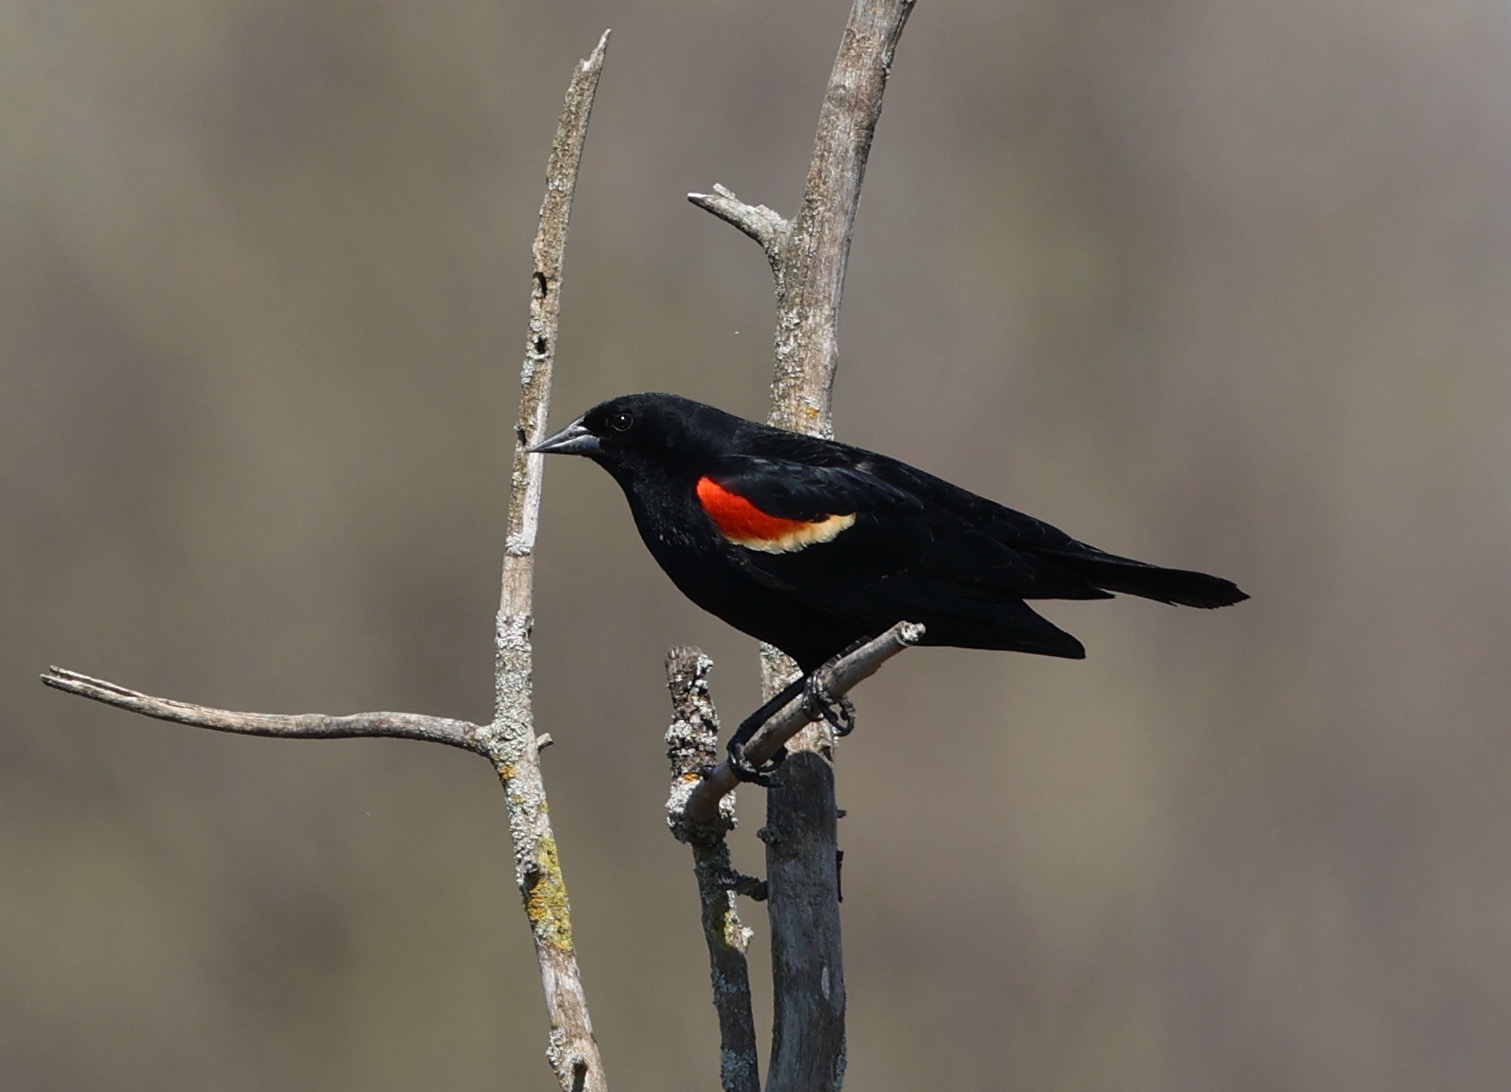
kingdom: Animalia
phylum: Chordata
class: Aves
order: Passeriformes
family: Icteridae
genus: Agelaius
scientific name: Agelaius phoeniceus
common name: Red-winged blackbird
